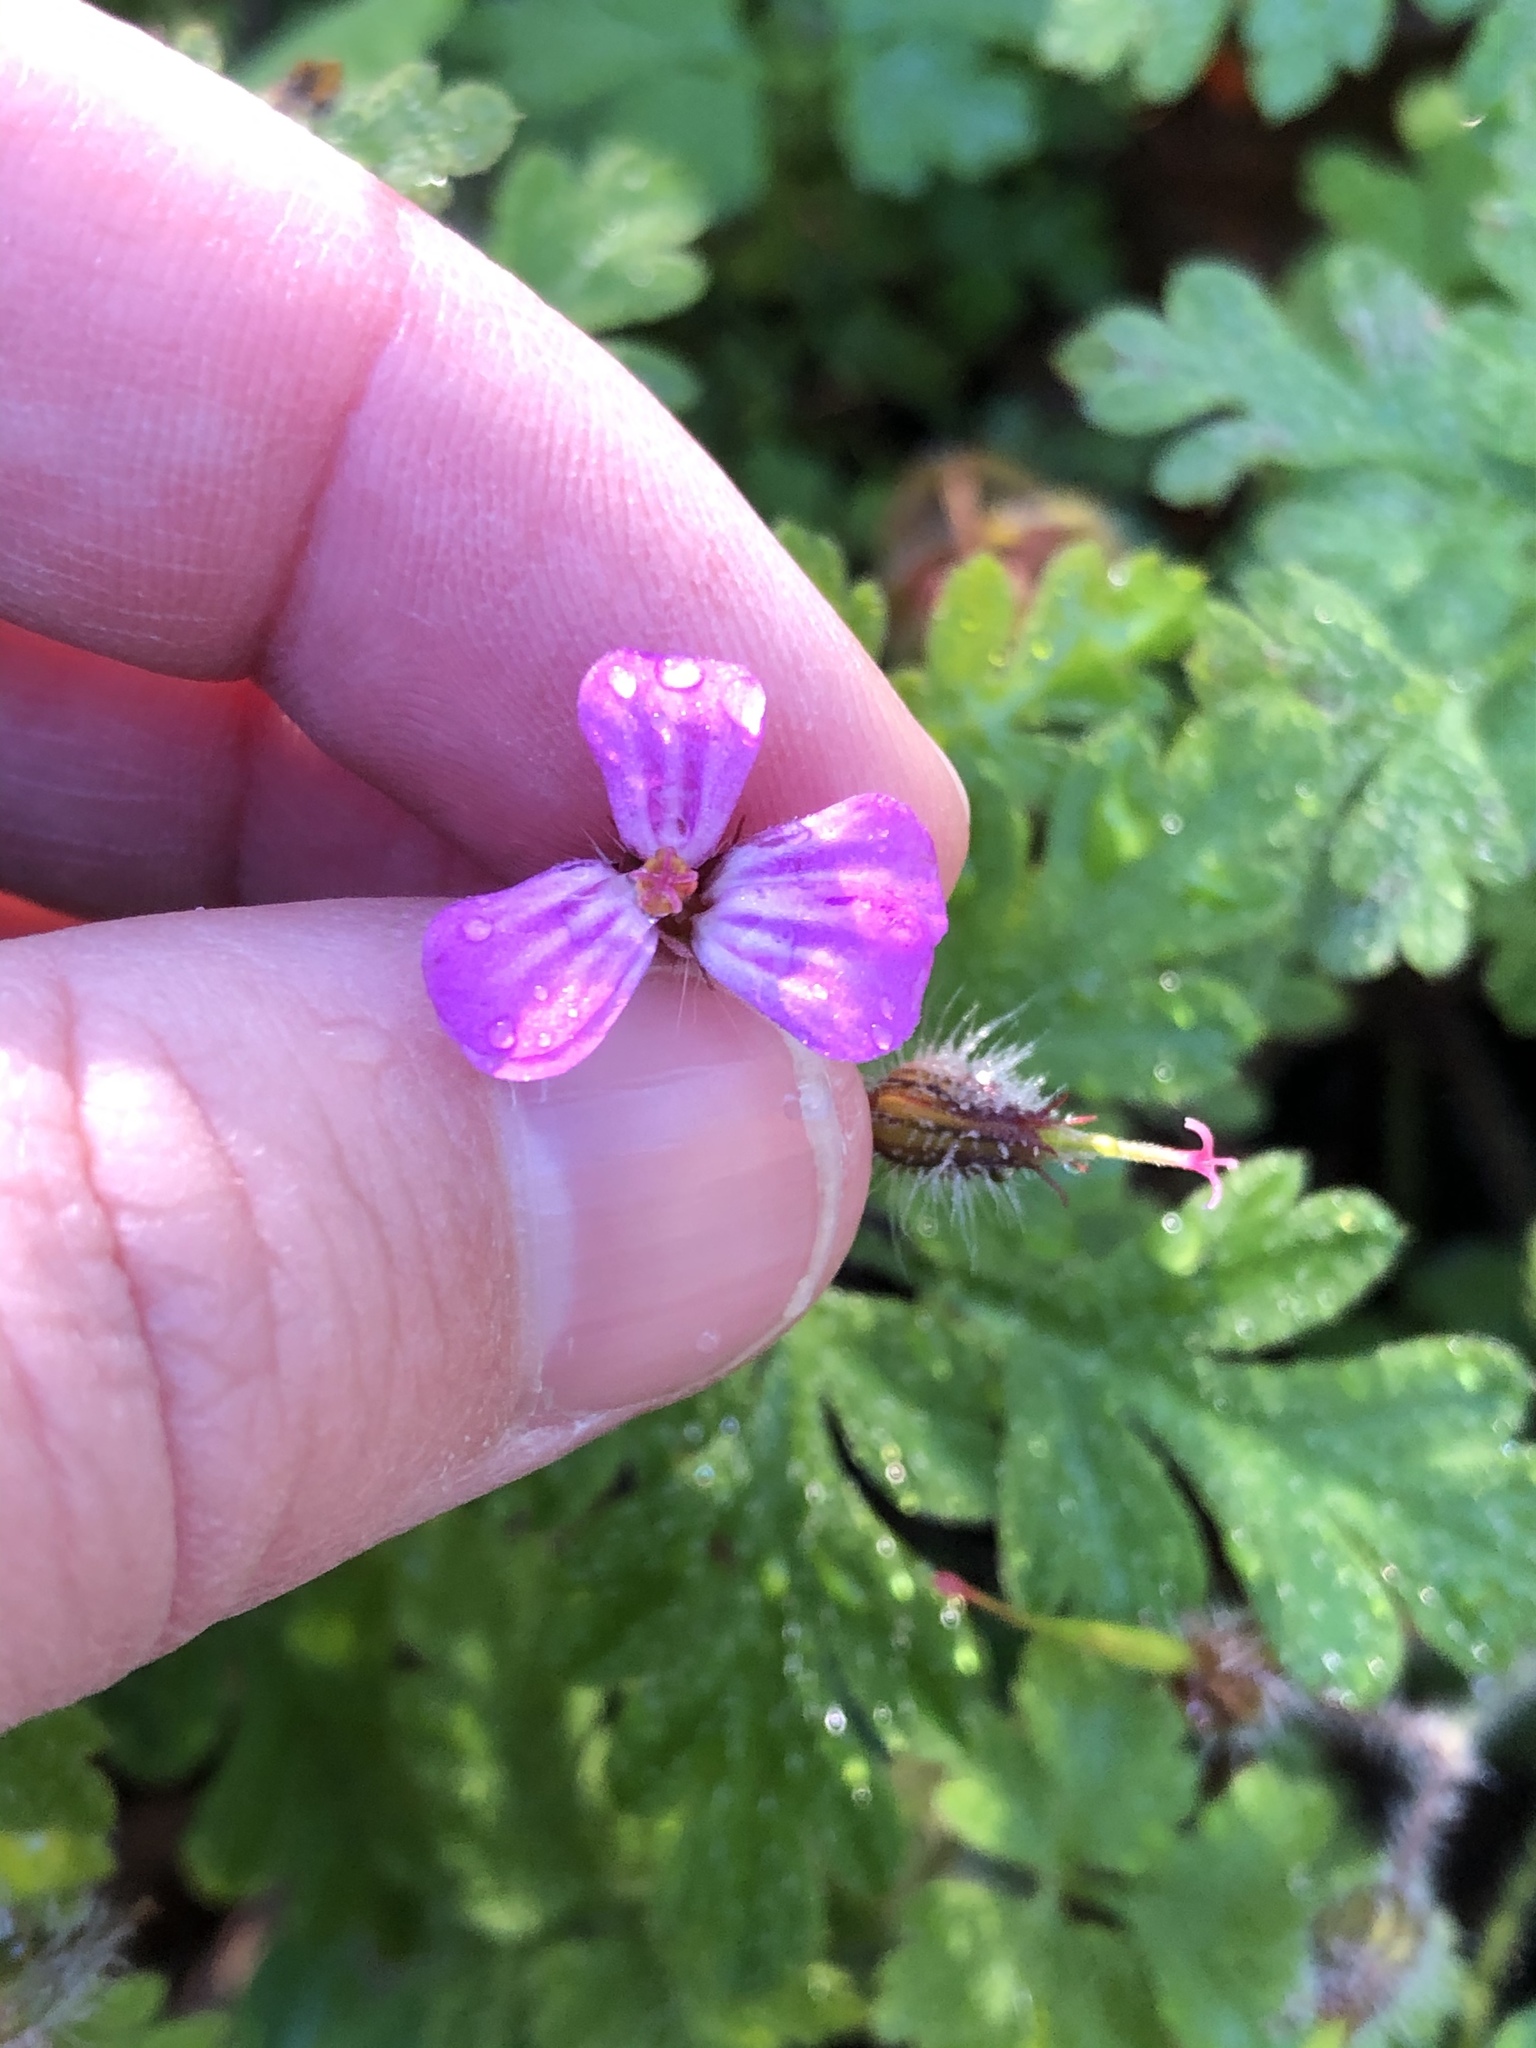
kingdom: Plantae
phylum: Tracheophyta
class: Magnoliopsida
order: Geraniales
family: Geraniaceae
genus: Geranium
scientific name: Geranium robertianum
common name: Herb-robert
